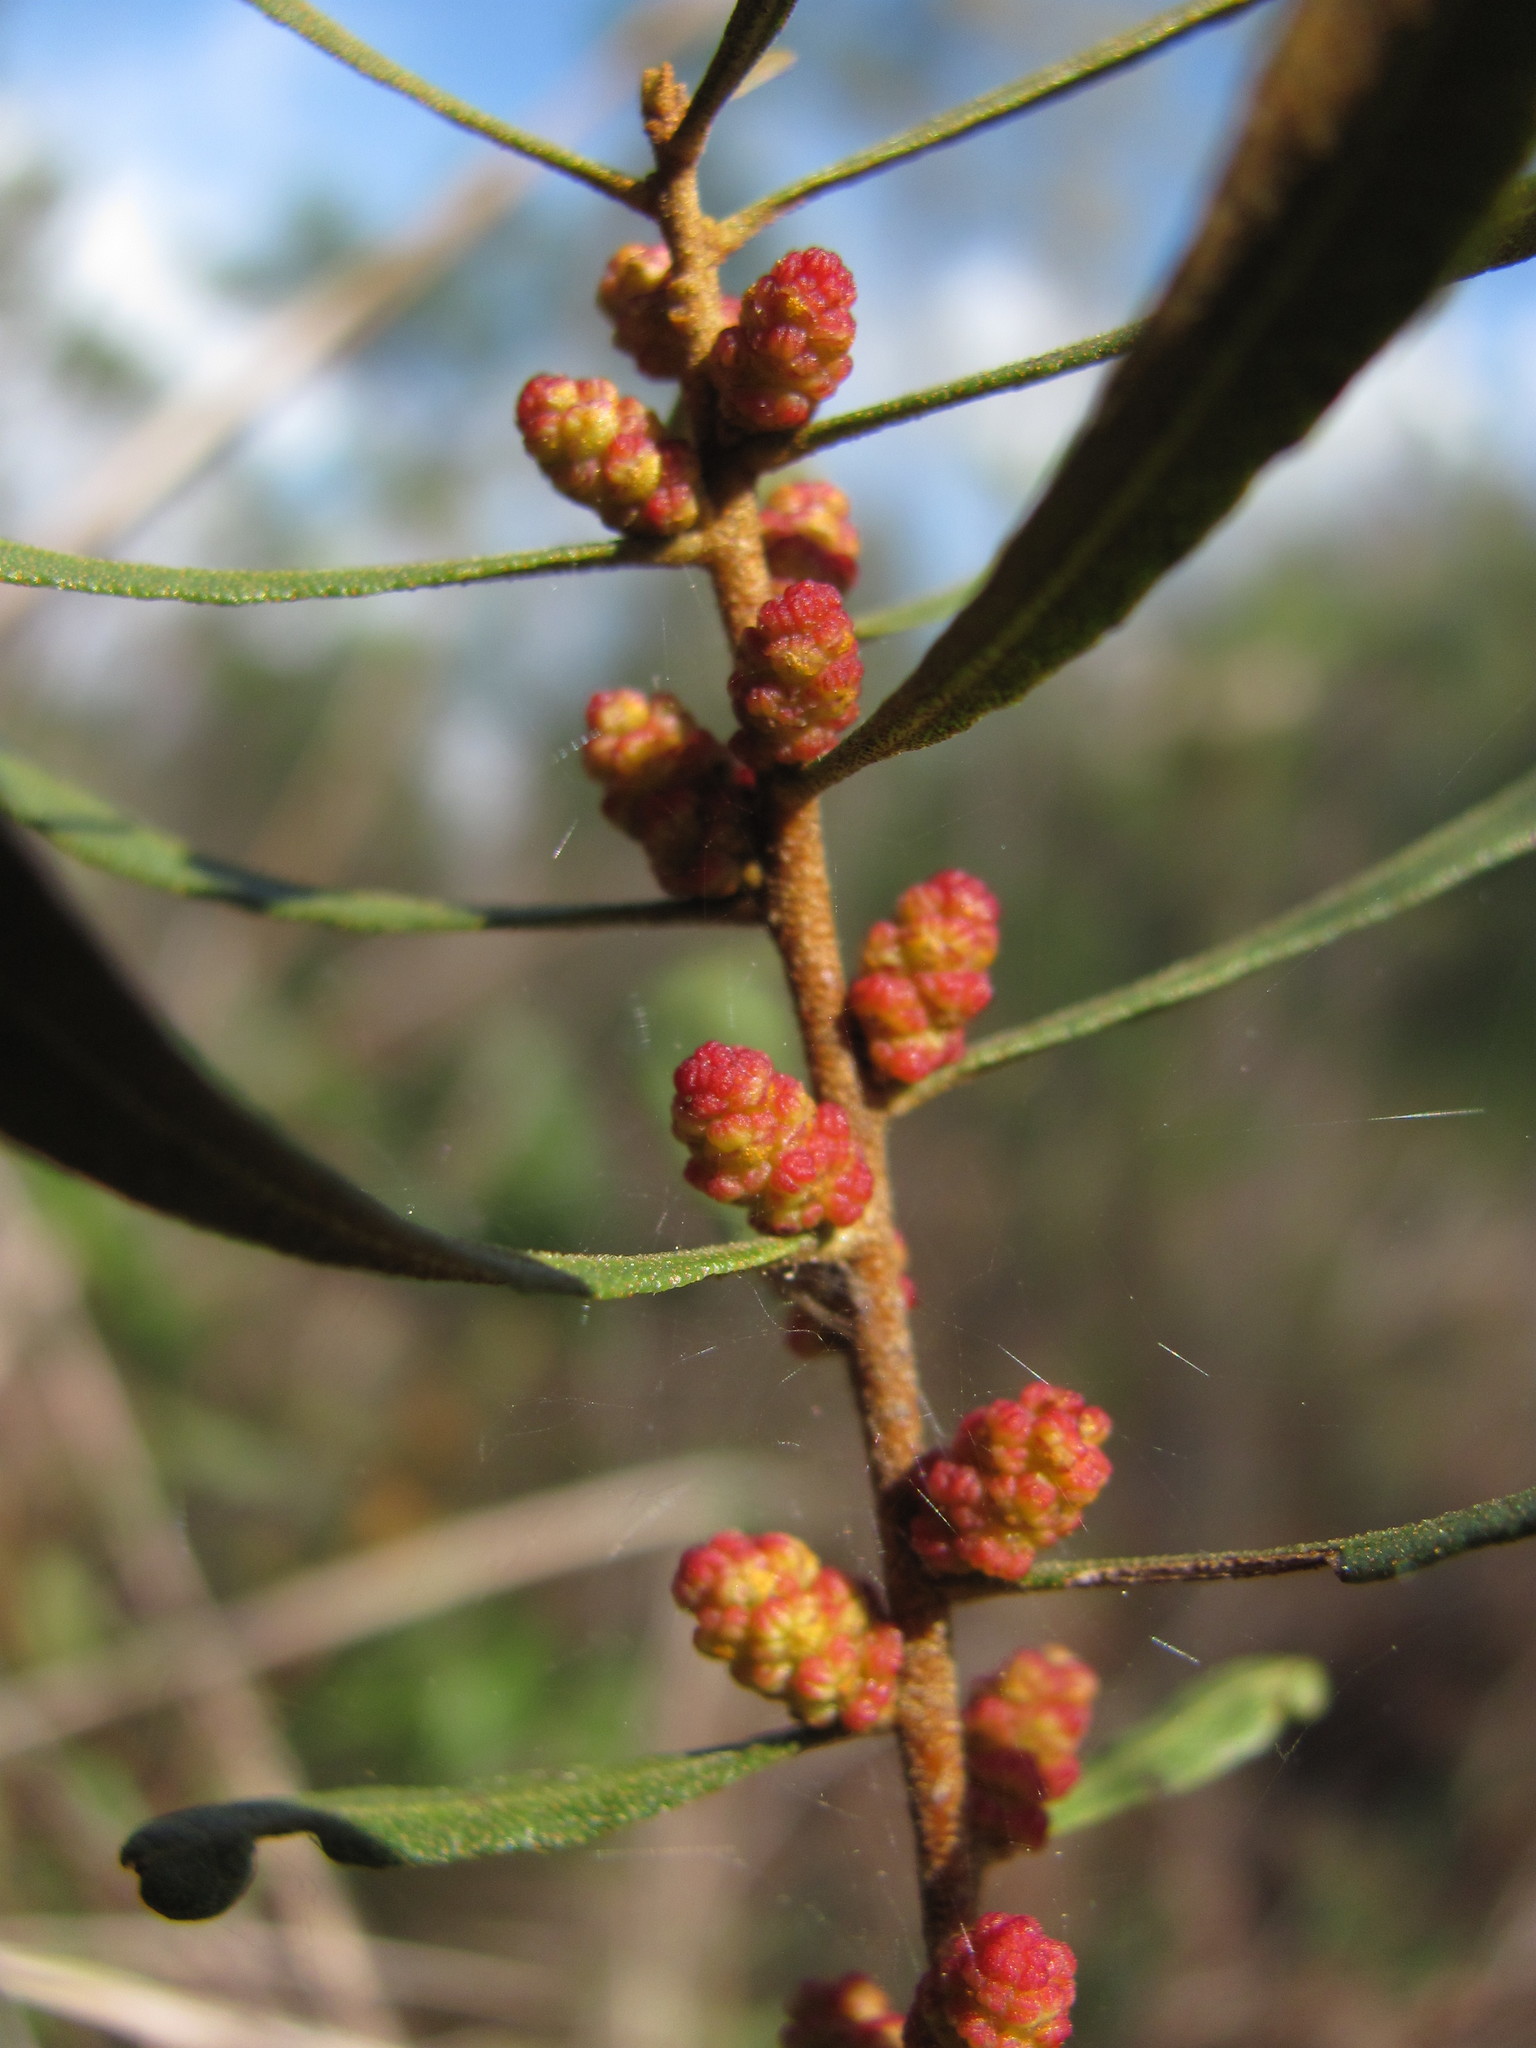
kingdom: Plantae
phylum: Tracheophyta
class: Magnoliopsida
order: Fagales
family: Myricaceae
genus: Morella
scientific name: Morella cerifera
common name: Wax myrtle
